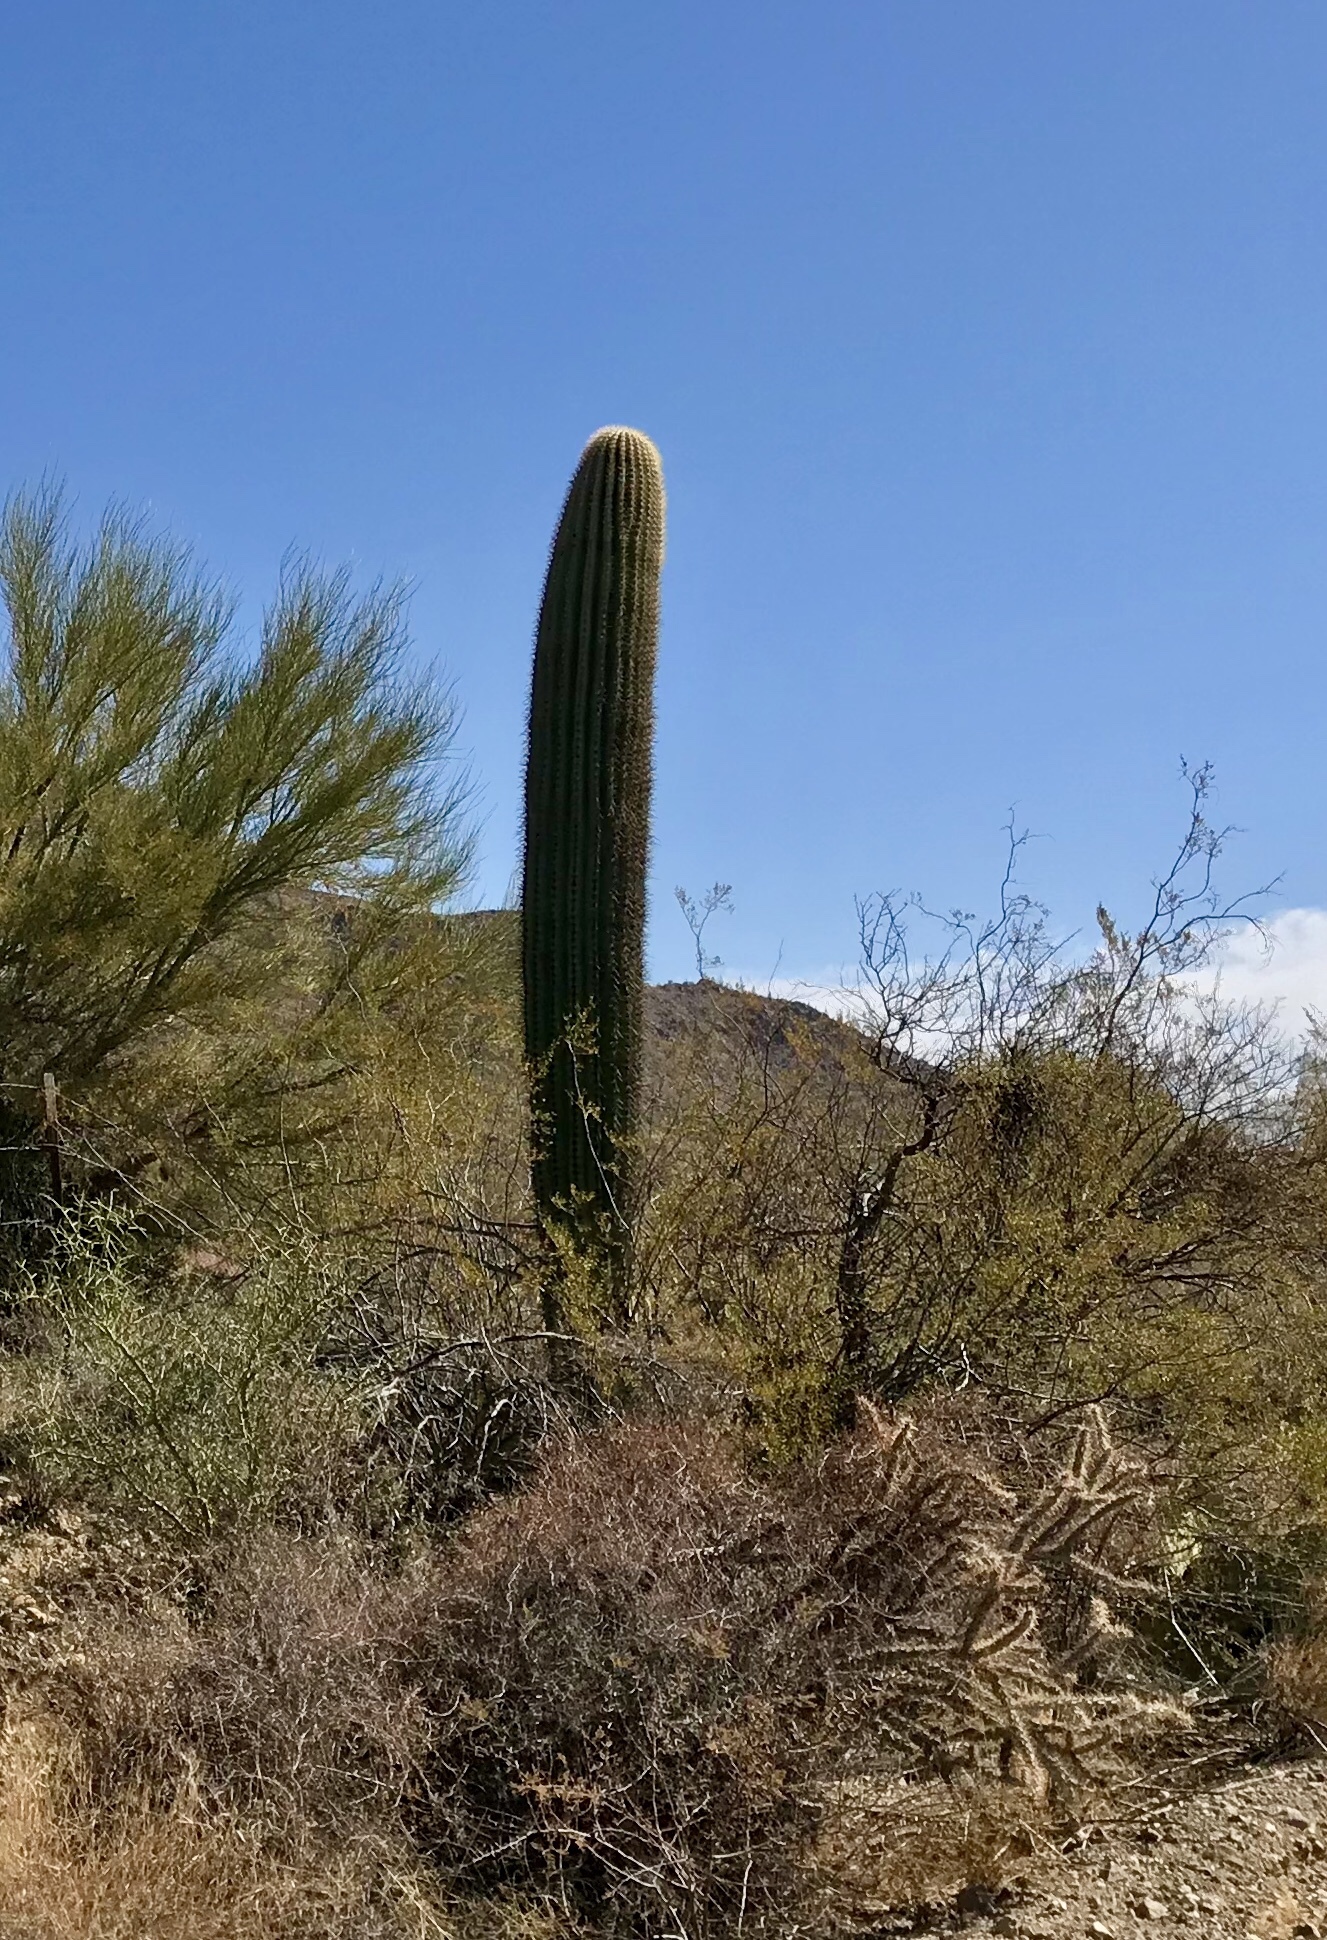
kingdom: Plantae
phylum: Tracheophyta
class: Magnoliopsida
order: Caryophyllales
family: Cactaceae
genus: Carnegiea
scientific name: Carnegiea gigantea
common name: Saguaro
